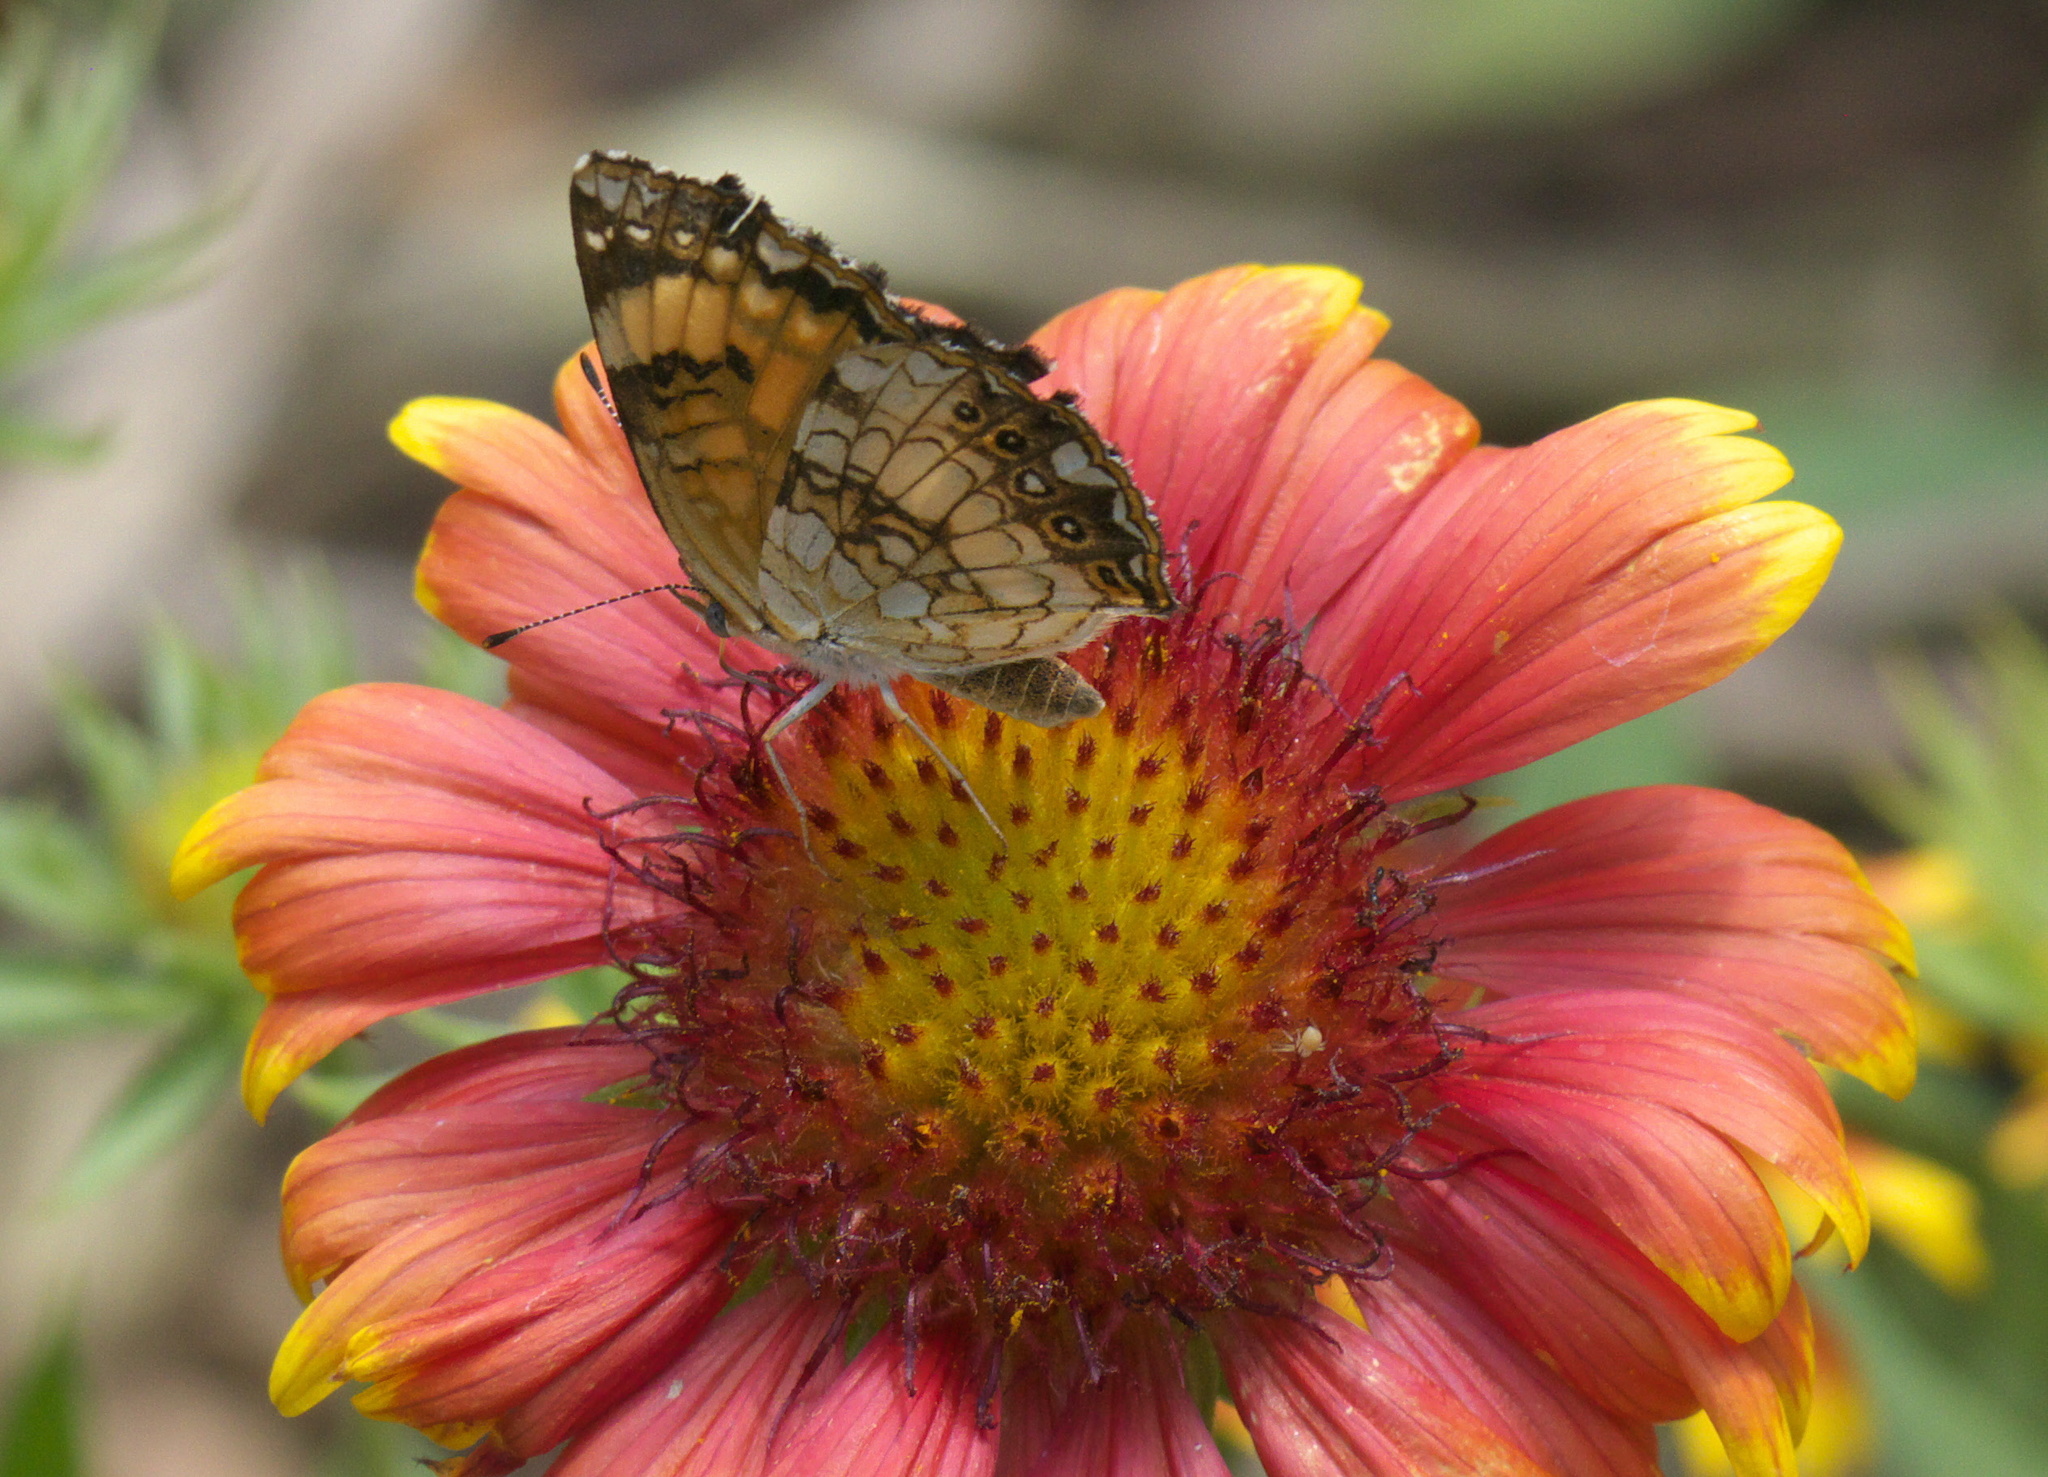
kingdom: Animalia
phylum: Arthropoda
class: Insecta
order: Lepidoptera
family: Nymphalidae
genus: Chlosyne
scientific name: Chlosyne nycteis
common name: Silvery checkerspot
